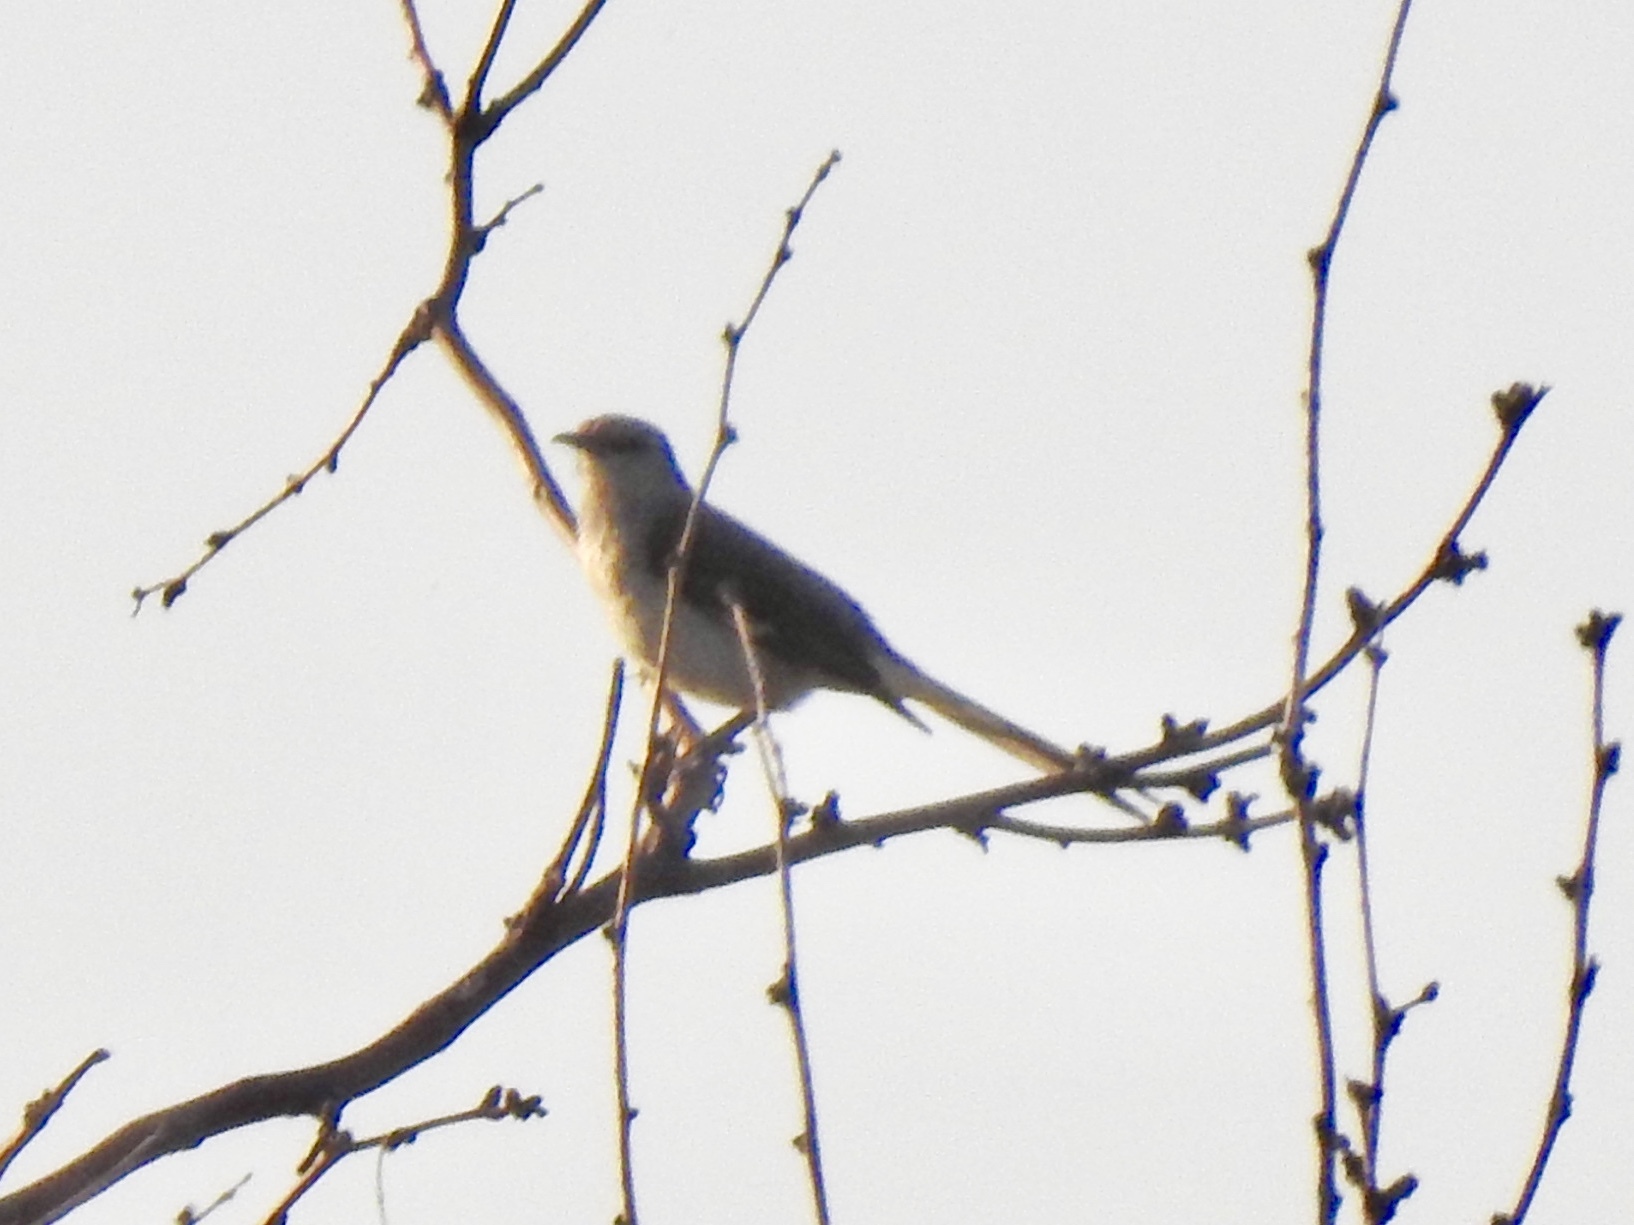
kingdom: Animalia
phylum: Chordata
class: Aves
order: Passeriformes
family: Mimidae
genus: Mimus
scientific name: Mimus polyglottos
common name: Northern mockingbird
